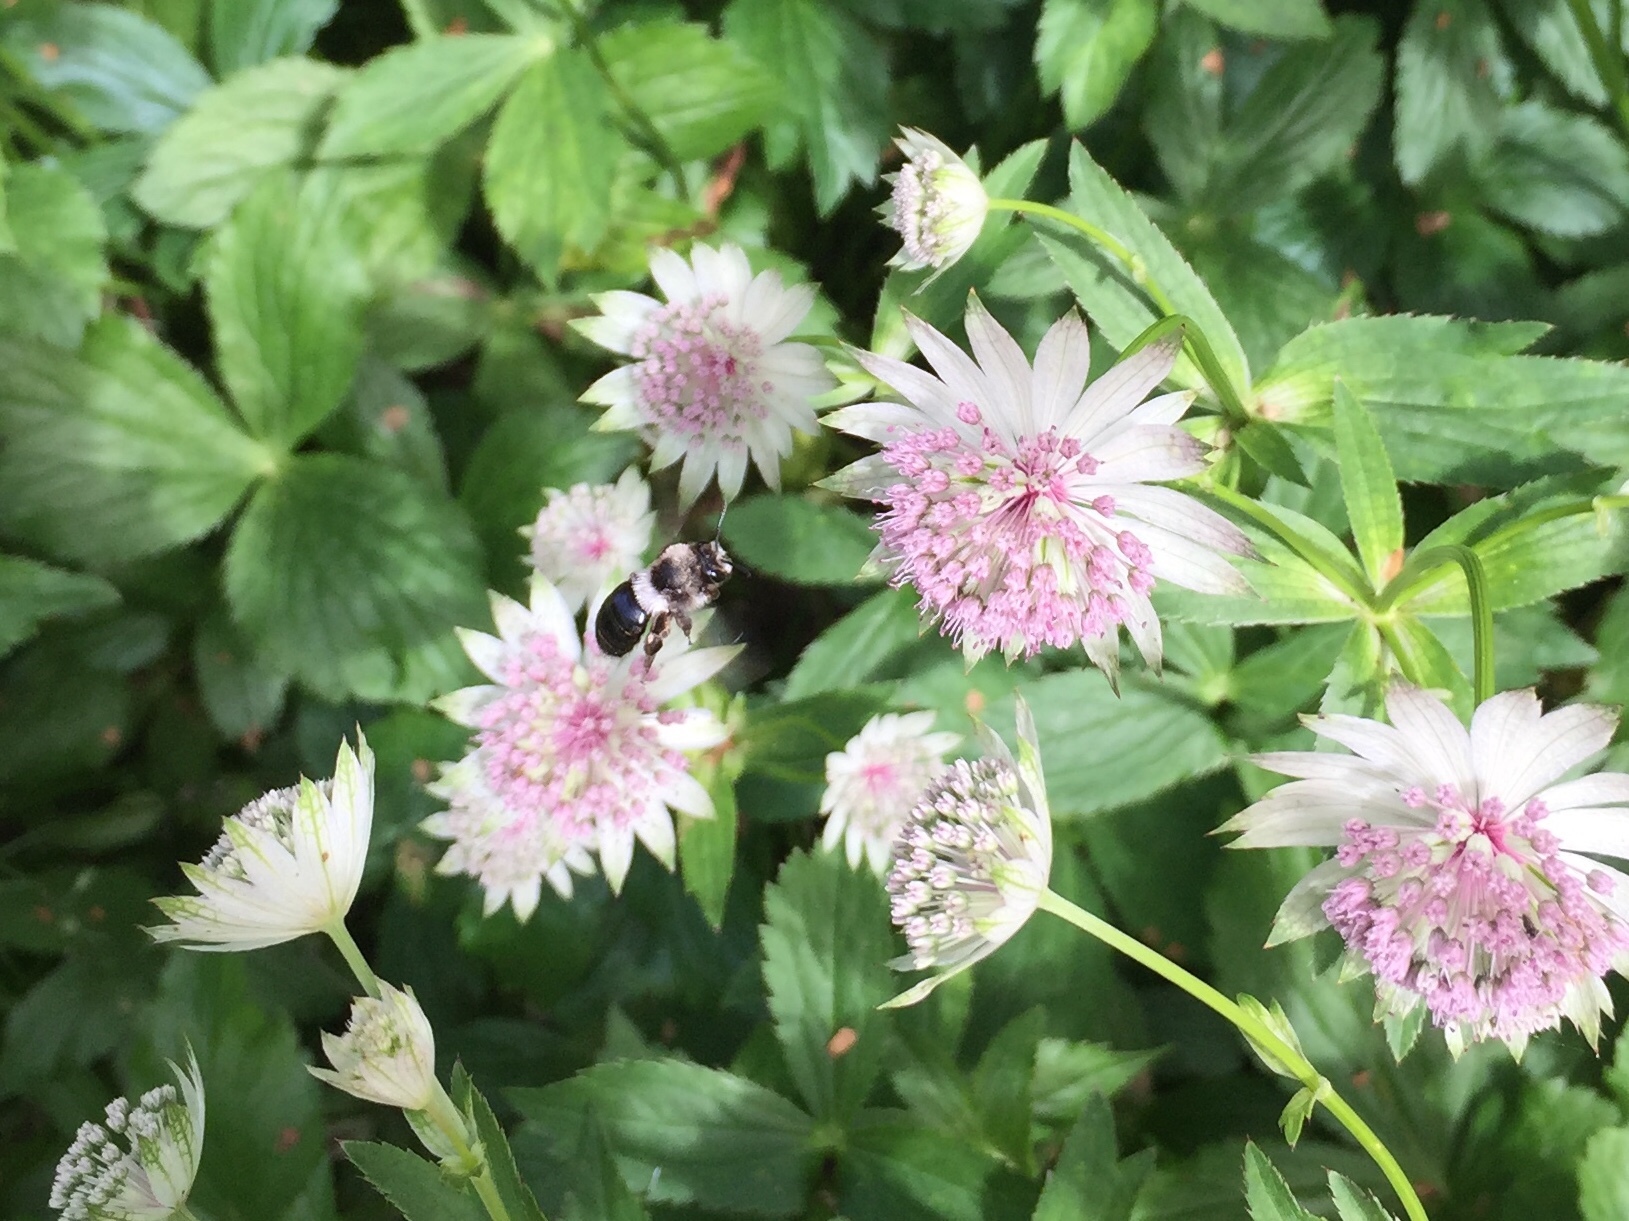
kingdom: Animalia
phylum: Arthropoda
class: Insecta
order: Hymenoptera
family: Andrenidae
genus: Andrena
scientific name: Andrena cineraria
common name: Ashy mining bee
